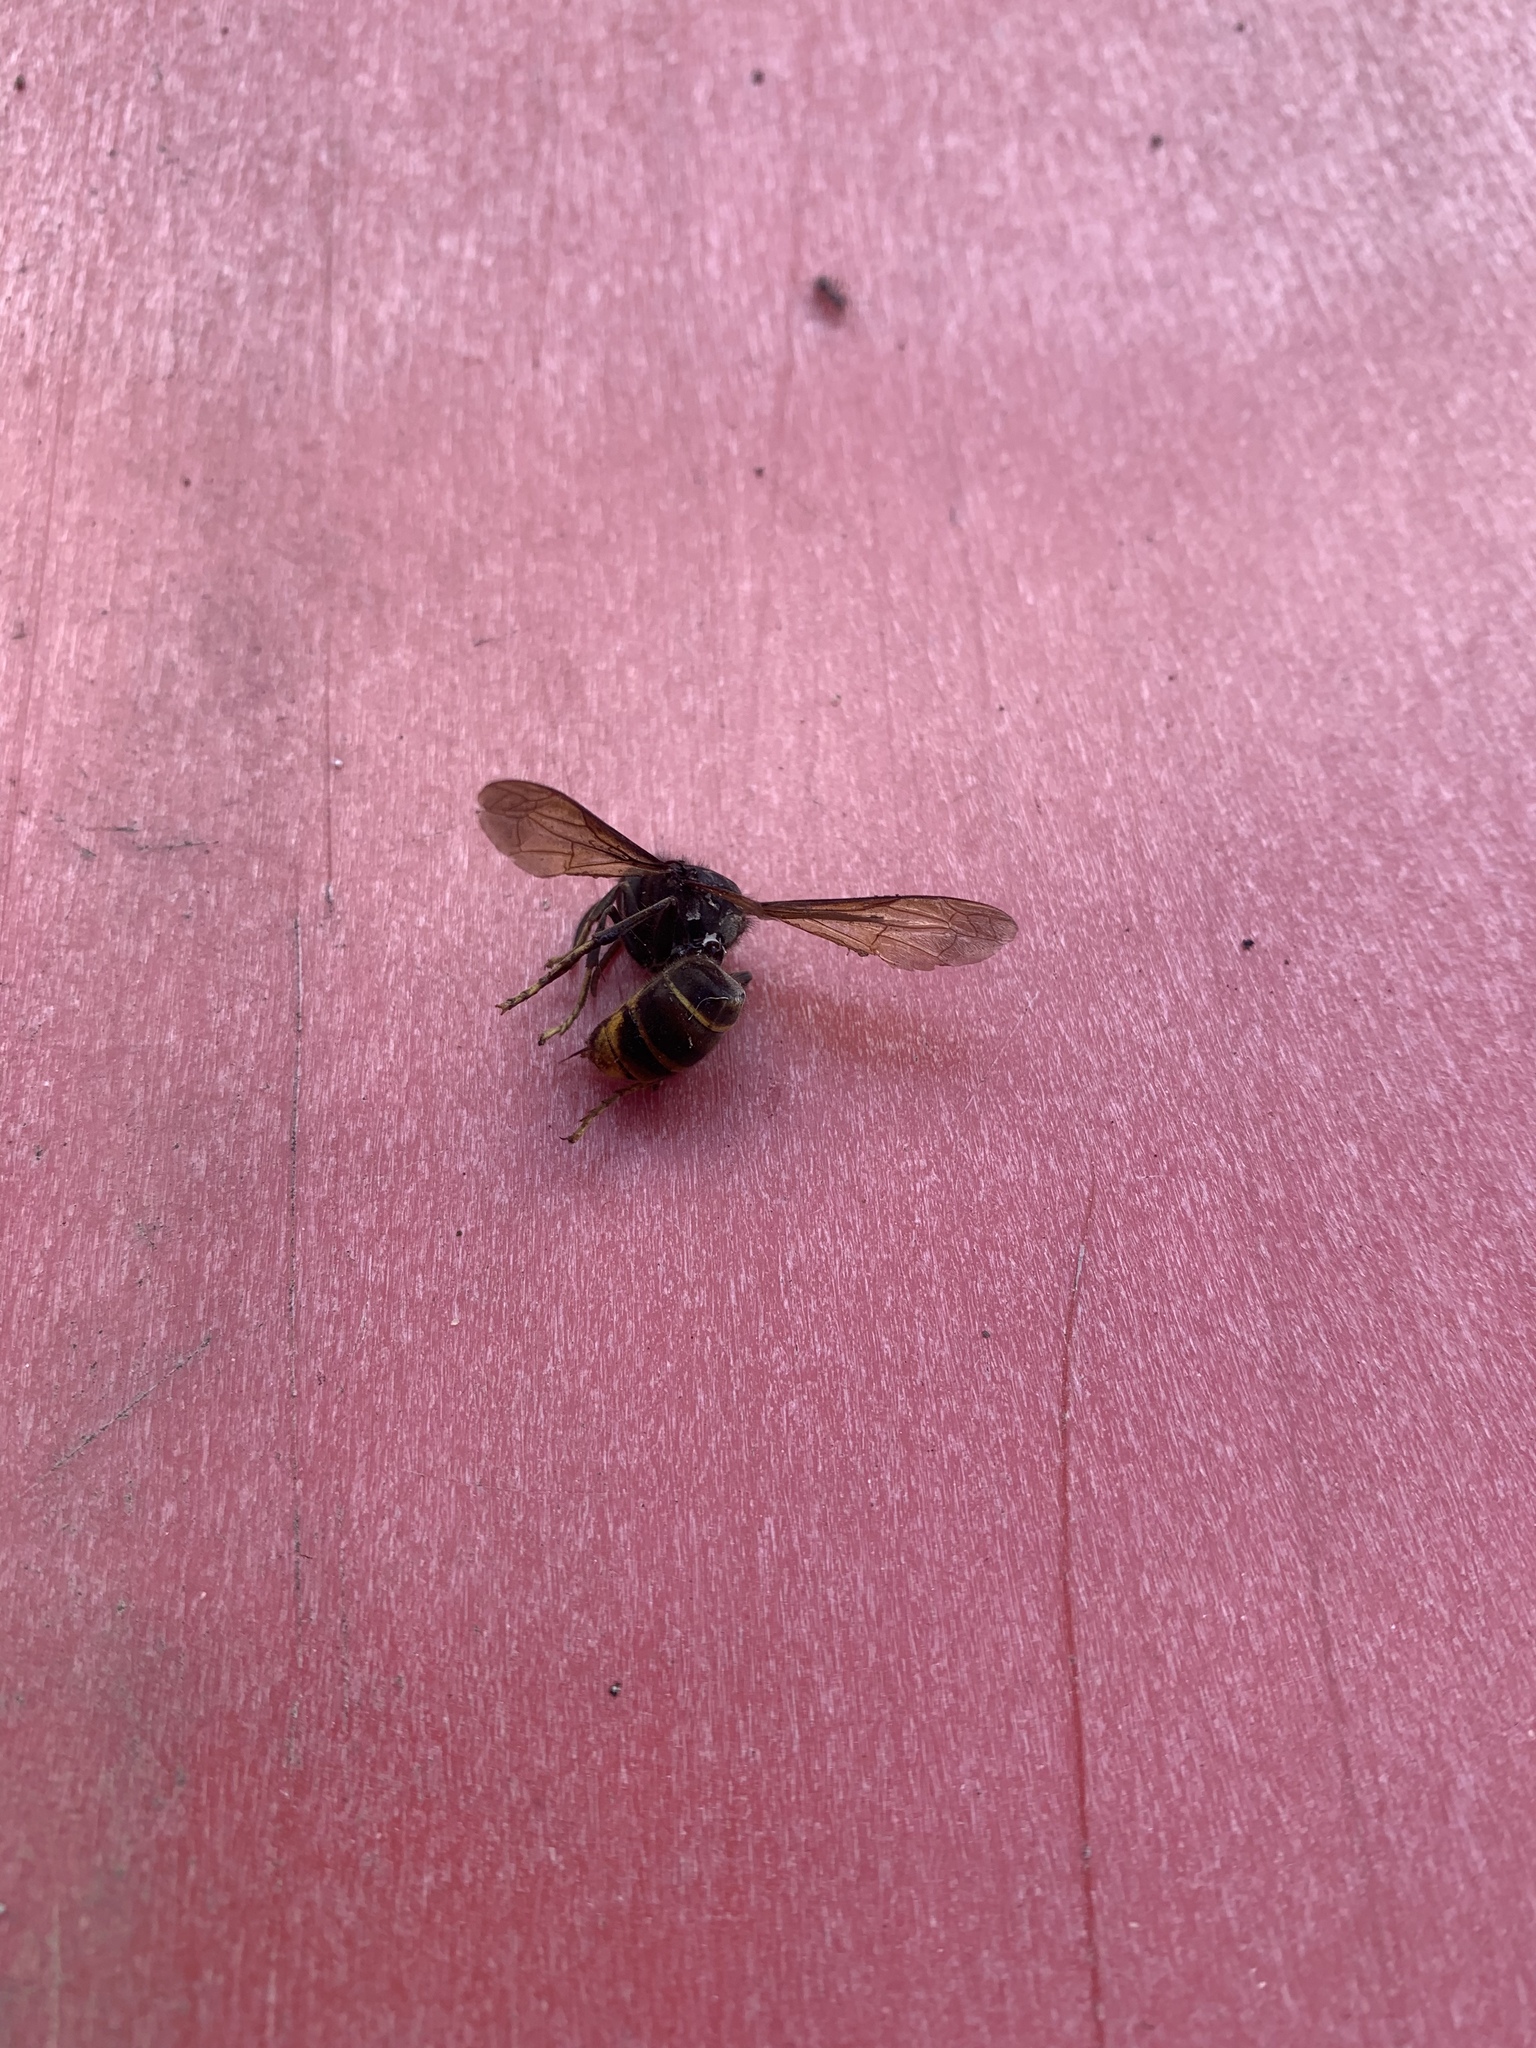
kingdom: Animalia
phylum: Arthropoda
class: Insecta
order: Hymenoptera
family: Vespidae
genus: Vespa
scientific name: Vespa velutina
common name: Asian hornet
